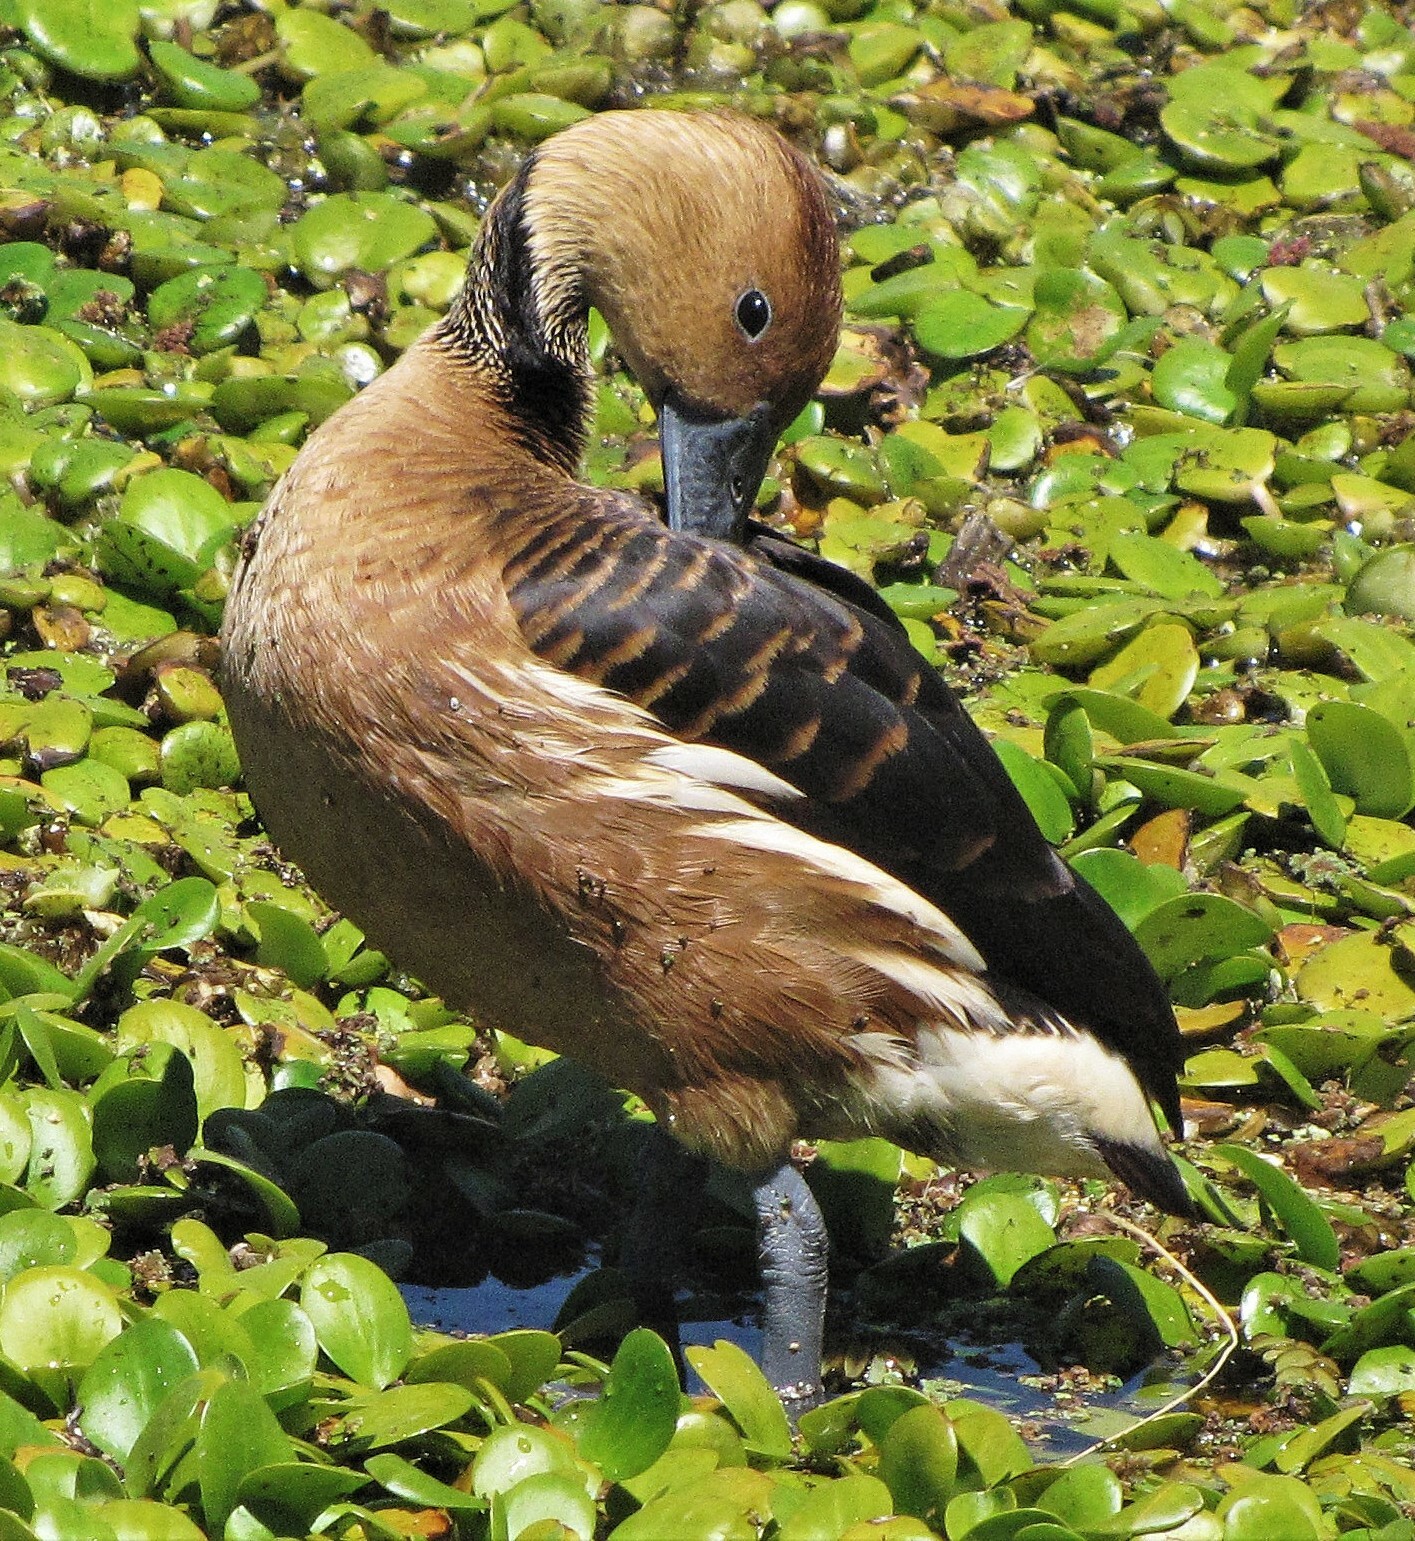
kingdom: Animalia
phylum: Chordata
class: Aves
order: Anseriformes
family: Anatidae
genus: Dendrocygna
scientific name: Dendrocygna bicolor
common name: Fulvous whistling duck
